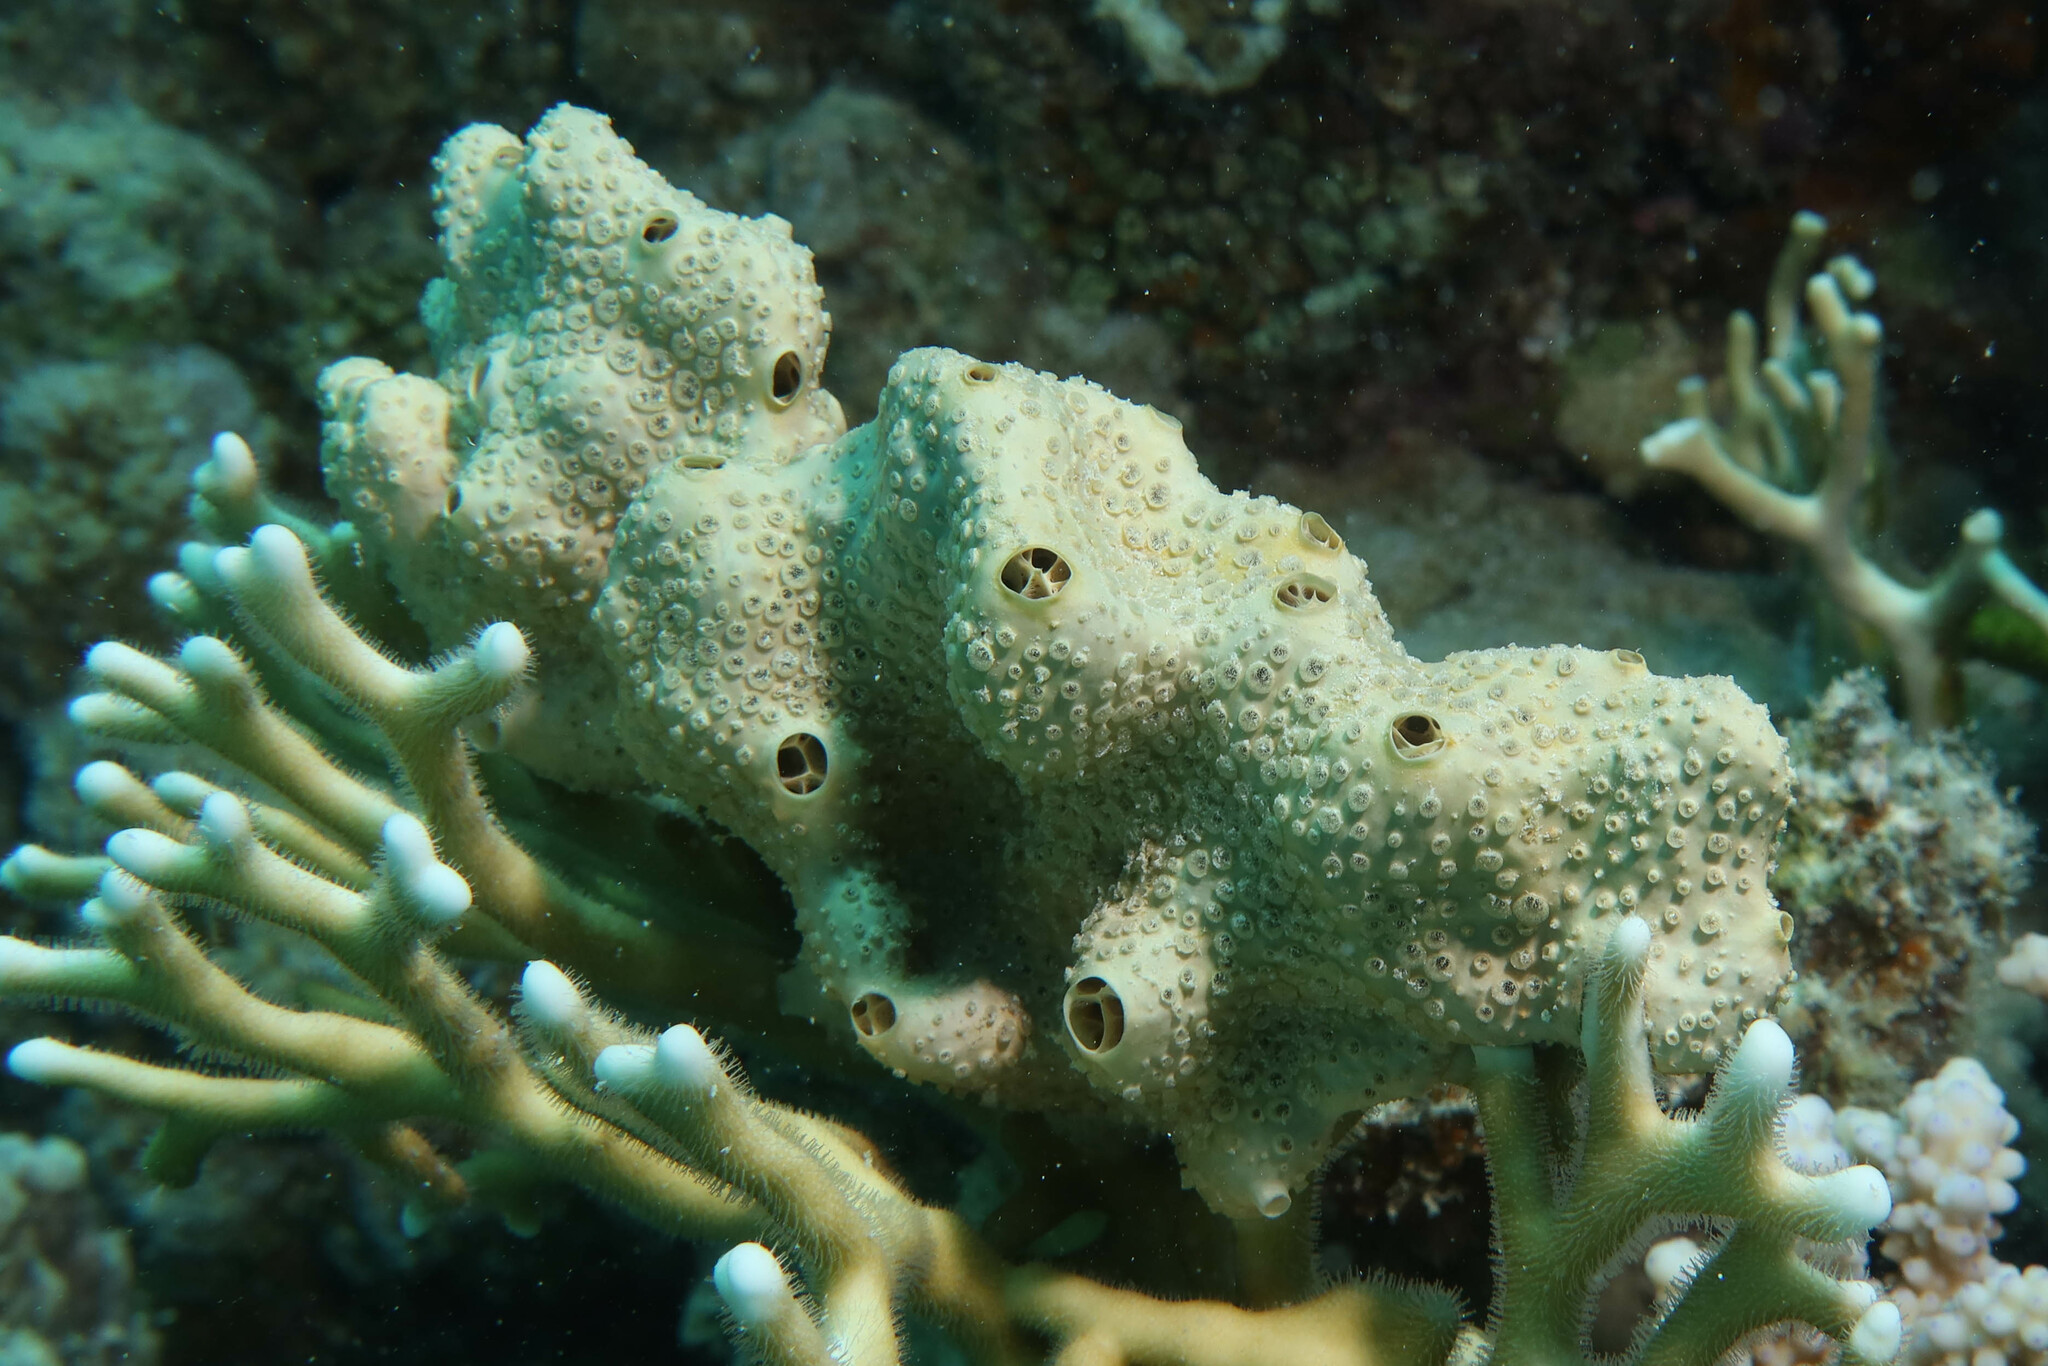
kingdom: Animalia
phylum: Porifera
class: Demospongiae
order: Poecilosclerida
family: Crellidae
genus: Crella
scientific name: Crella cyathophora
